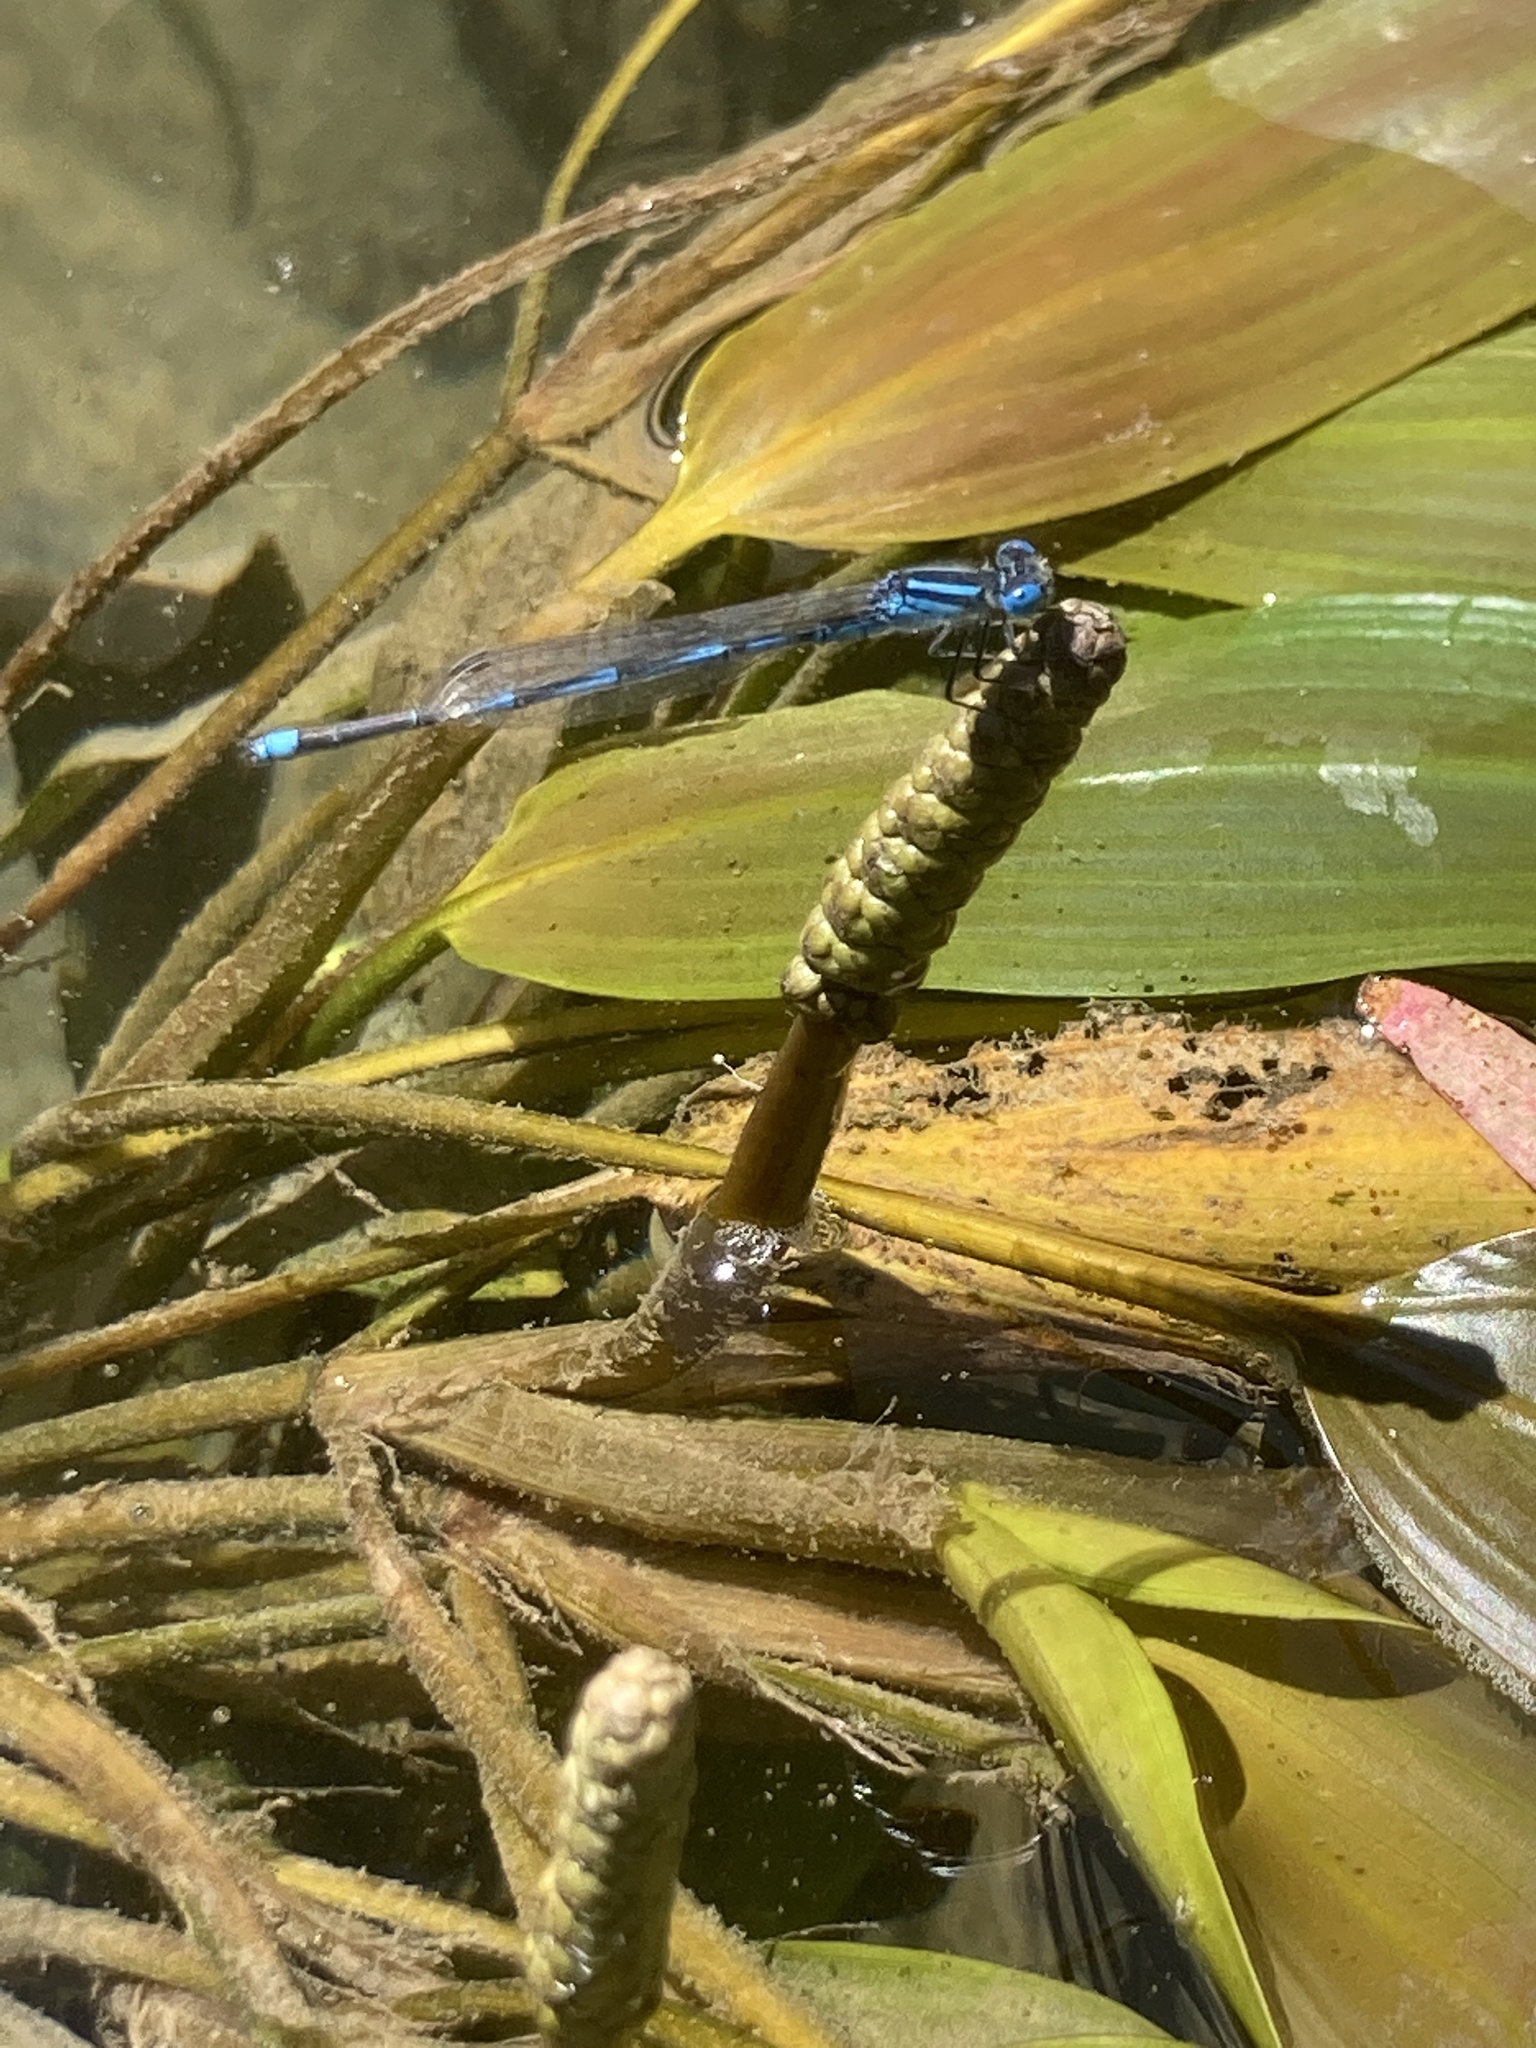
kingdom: Animalia
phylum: Arthropoda
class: Insecta
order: Odonata
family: Coenagrionidae
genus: Erythromma
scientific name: Erythromma lindenii
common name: Blue-eye
